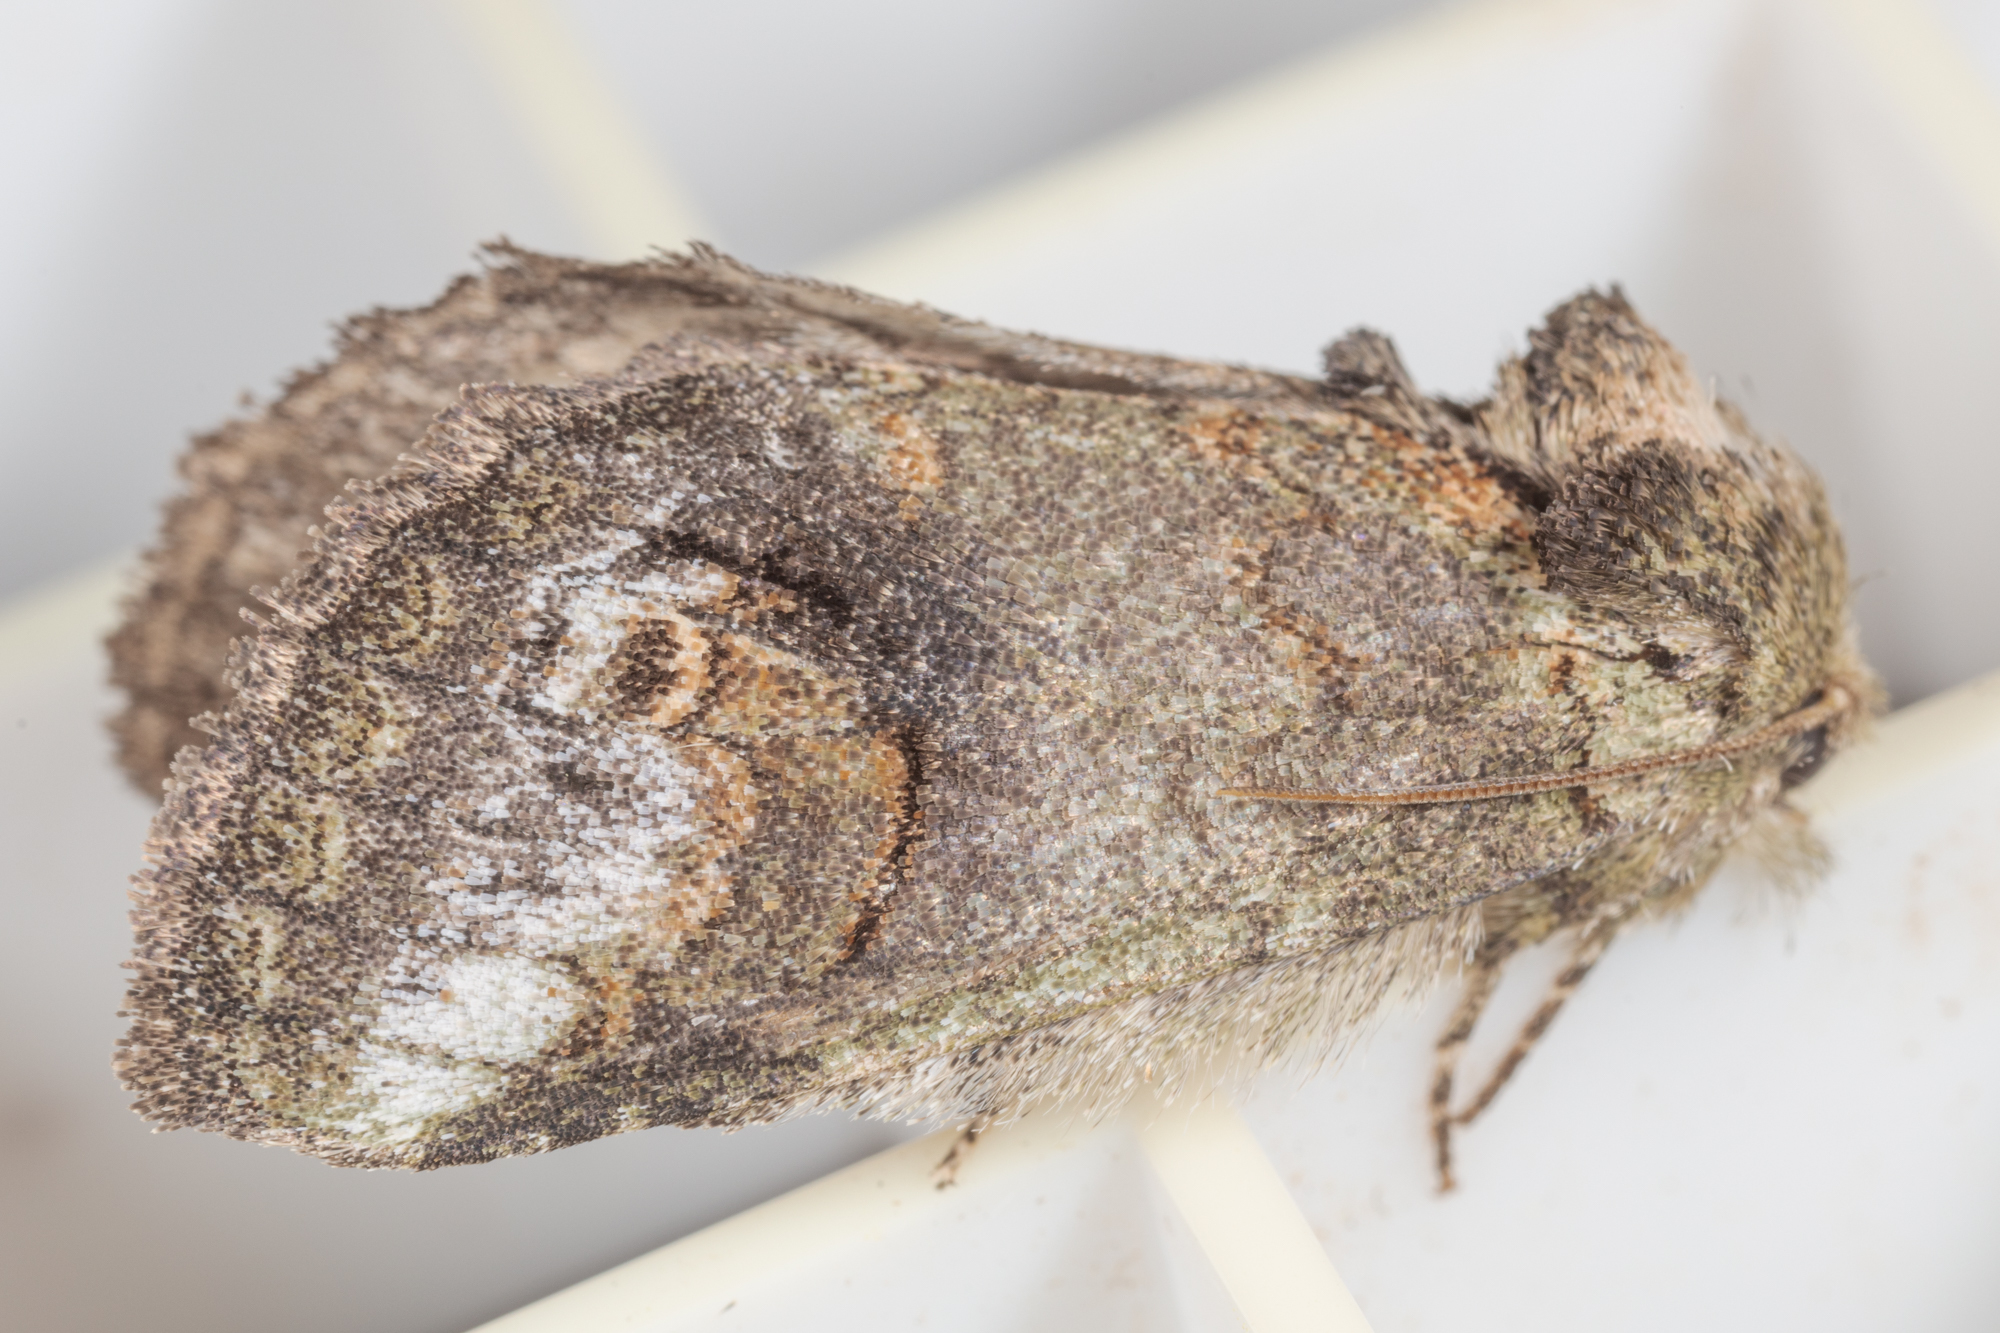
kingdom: Animalia
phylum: Arthropoda
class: Insecta
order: Lepidoptera
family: Notodontidae
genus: Rifargia
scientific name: Rifargia
